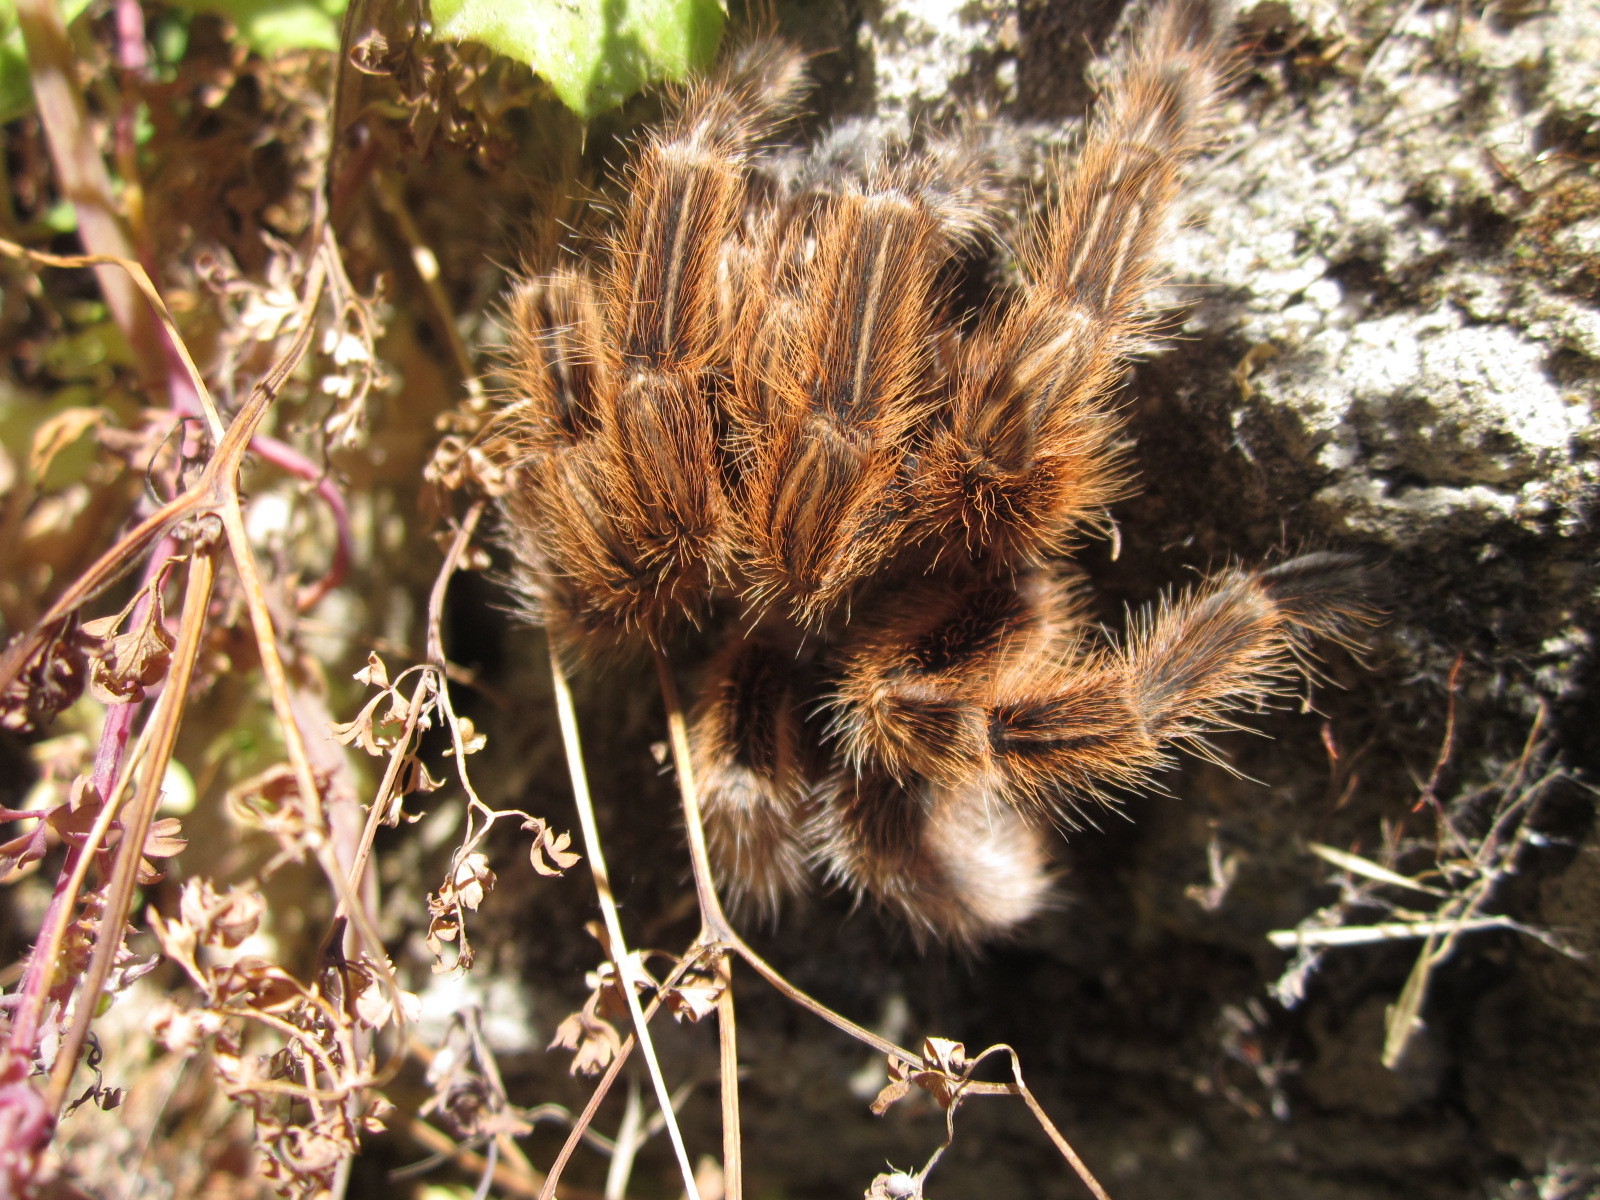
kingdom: Animalia
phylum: Arthropoda
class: Arachnida
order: Araneae
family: Theraphosidae
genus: Grammostola
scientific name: Grammostola rosea
